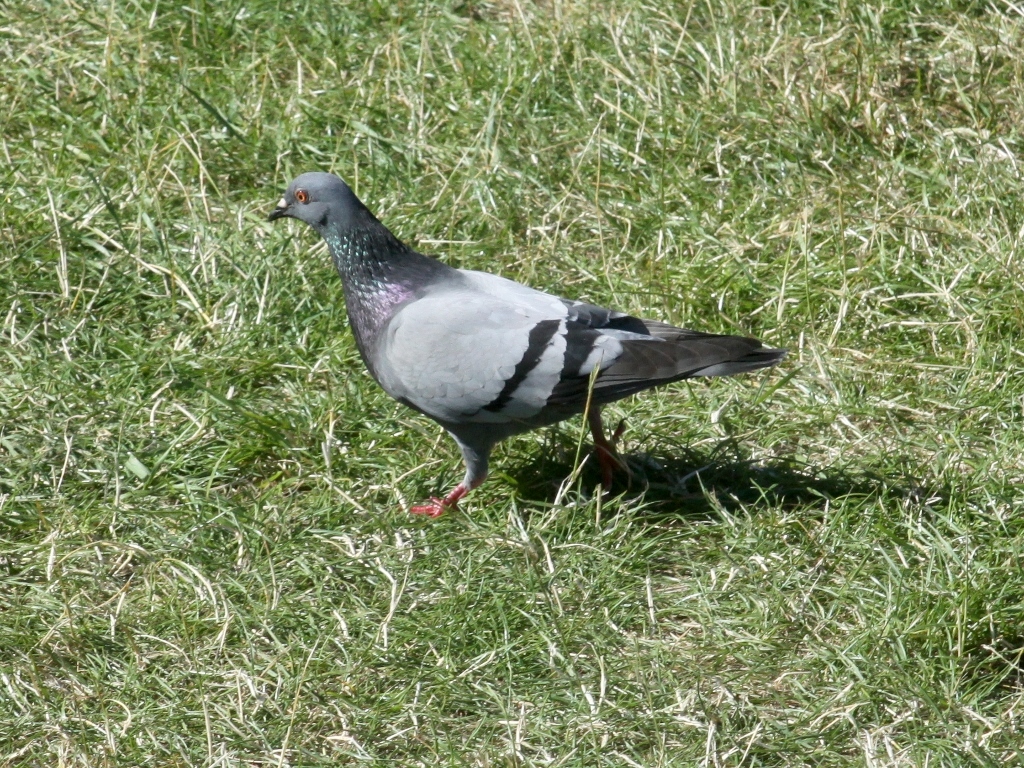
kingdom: Animalia
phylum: Chordata
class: Aves
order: Columbiformes
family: Columbidae
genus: Columba
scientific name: Columba livia
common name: Rock pigeon
